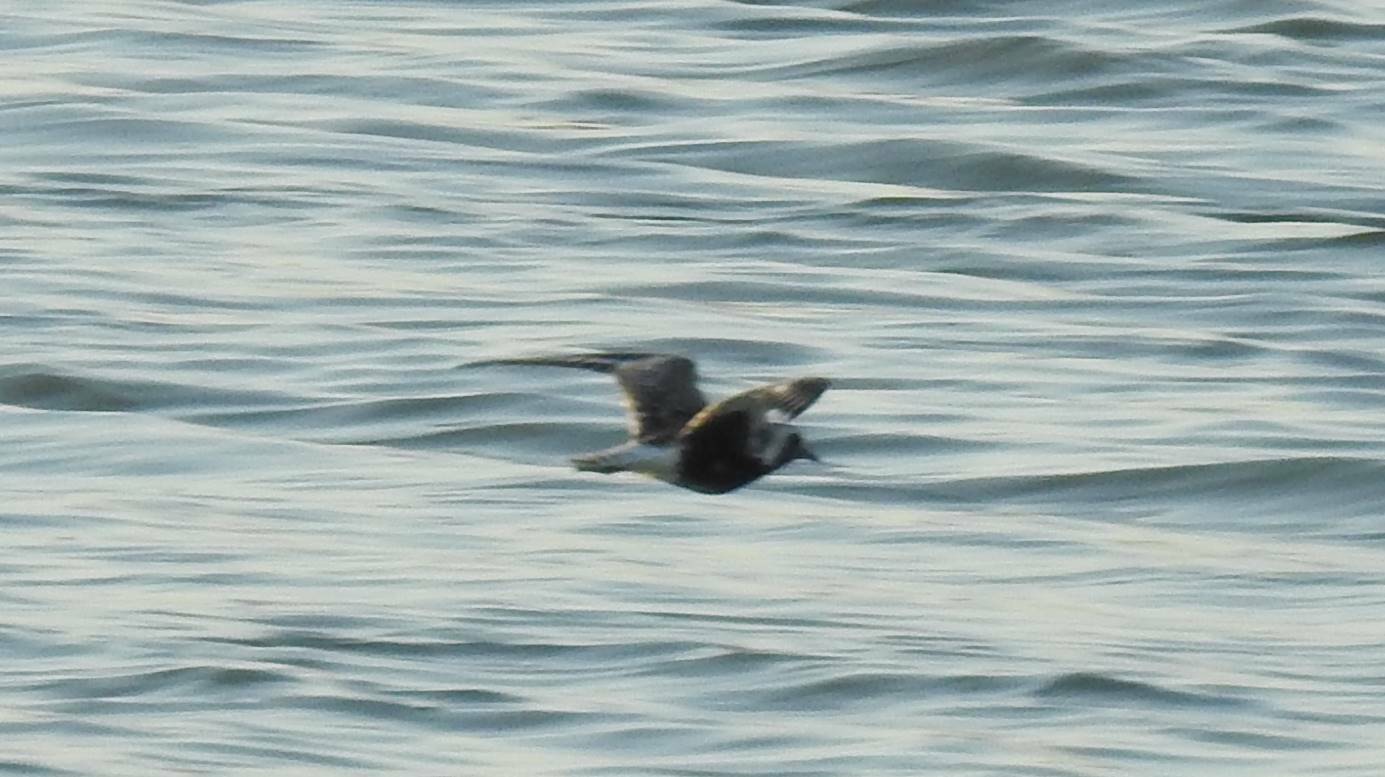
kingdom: Animalia
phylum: Chordata
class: Aves
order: Charadriiformes
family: Charadriidae
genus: Pluvialis
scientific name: Pluvialis squatarola
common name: Grey plover
